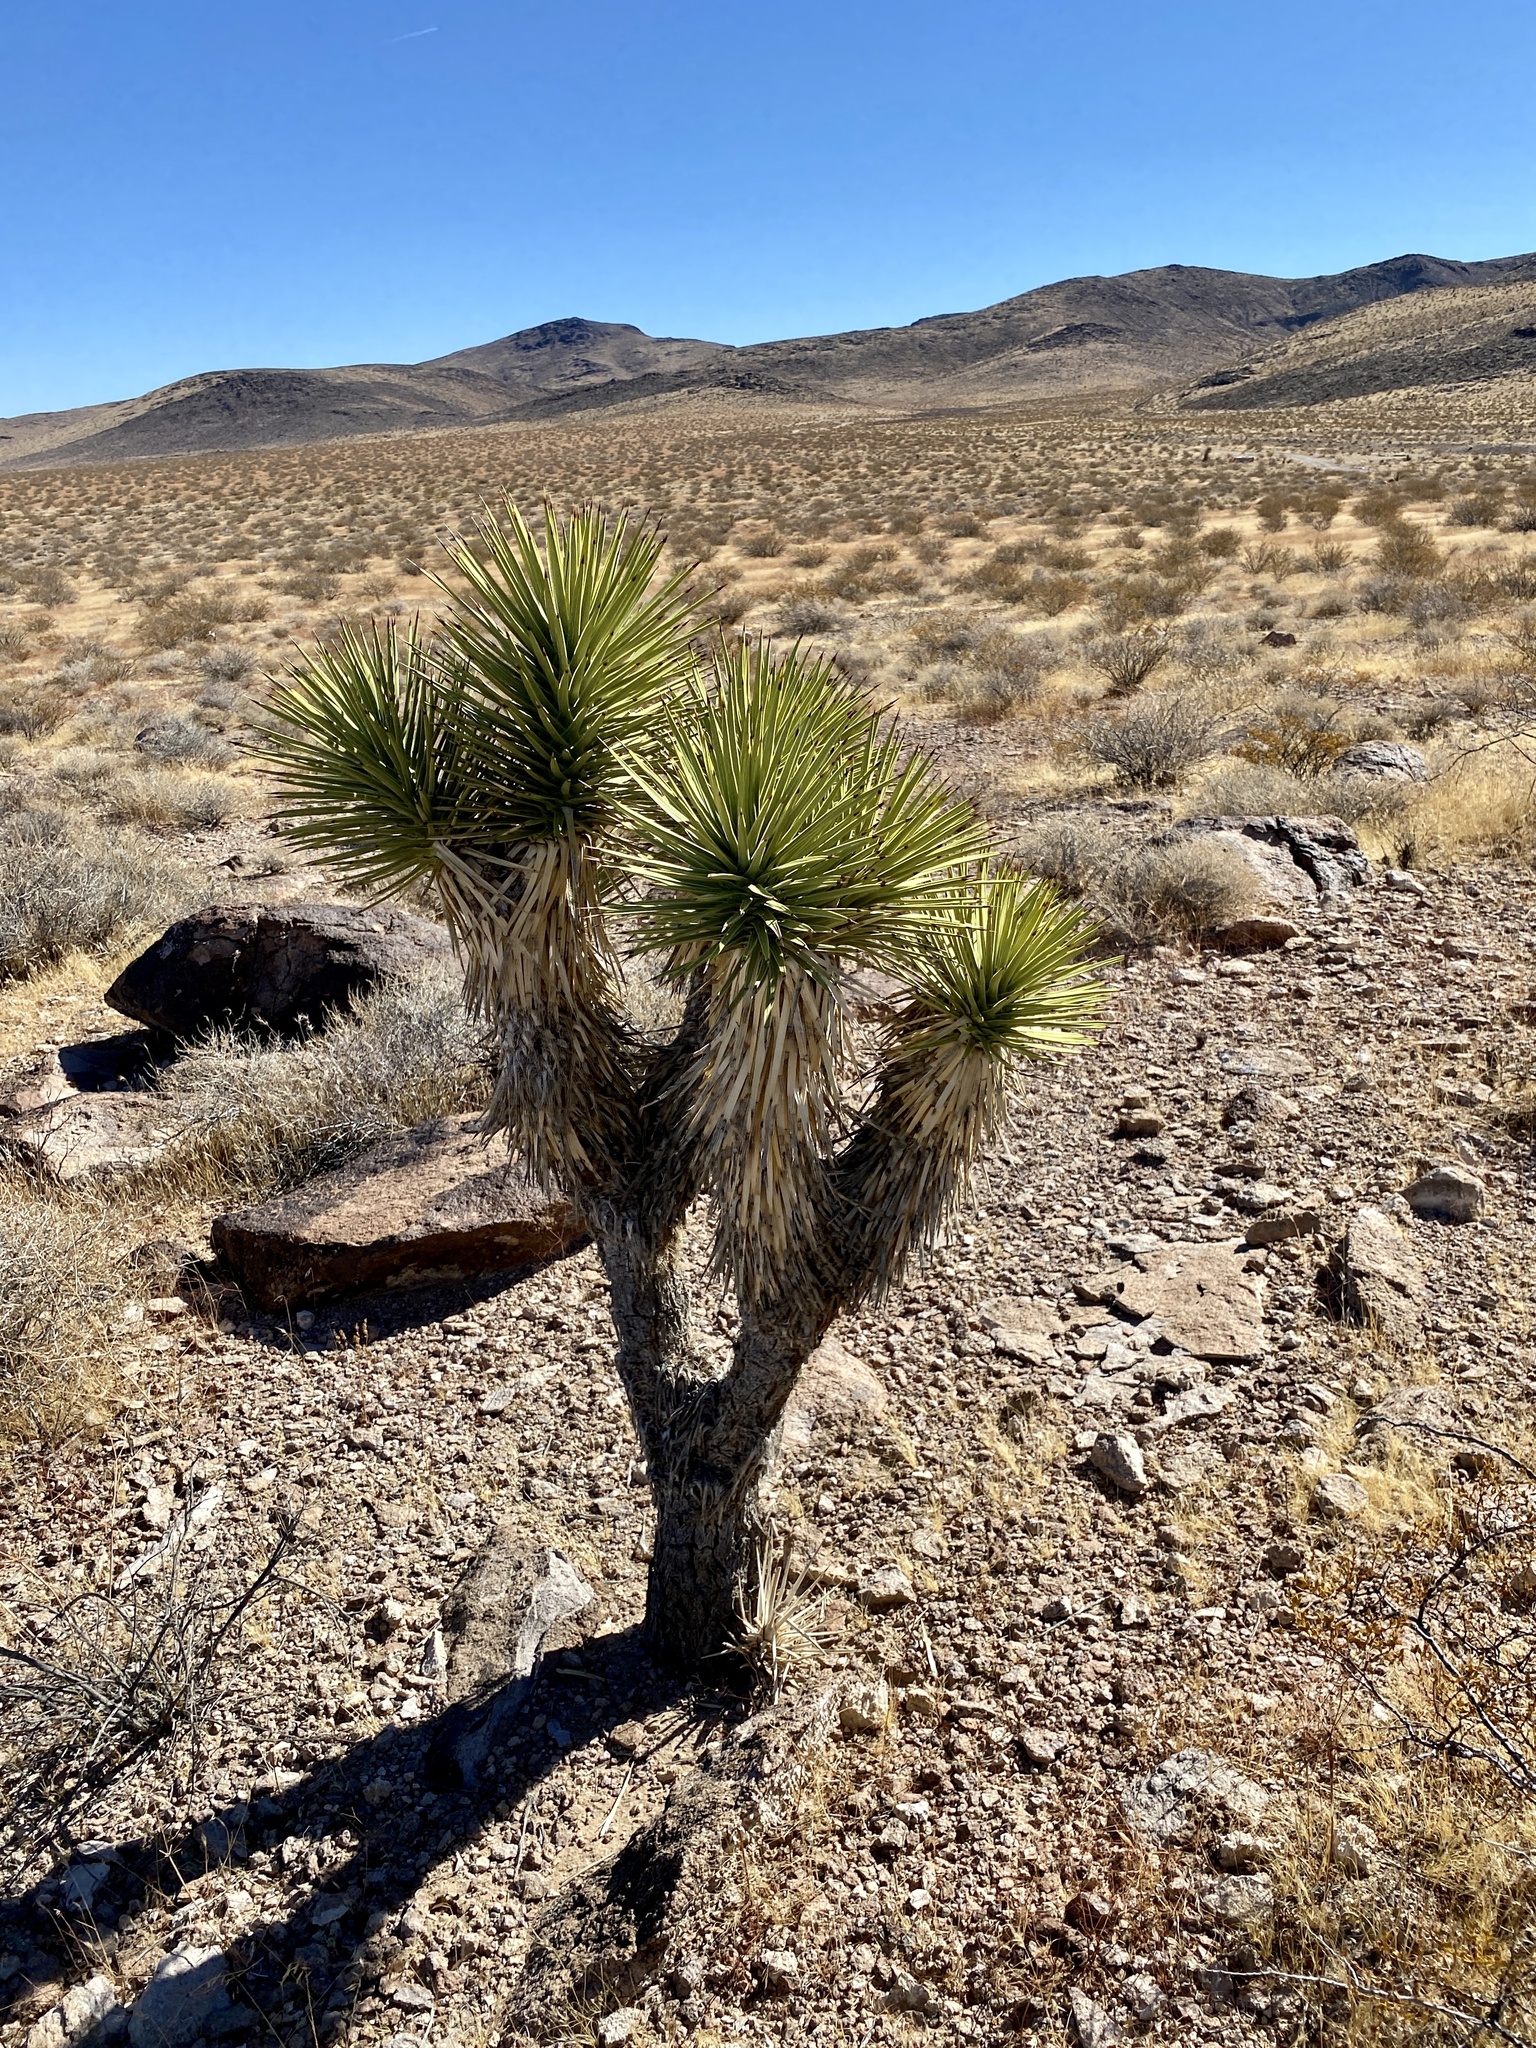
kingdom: Plantae
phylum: Tracheophyta
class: Liliopsida
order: Asparagales
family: Asparagaceae
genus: Yucca
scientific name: Yucca brevifolia
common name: Joshua tree
